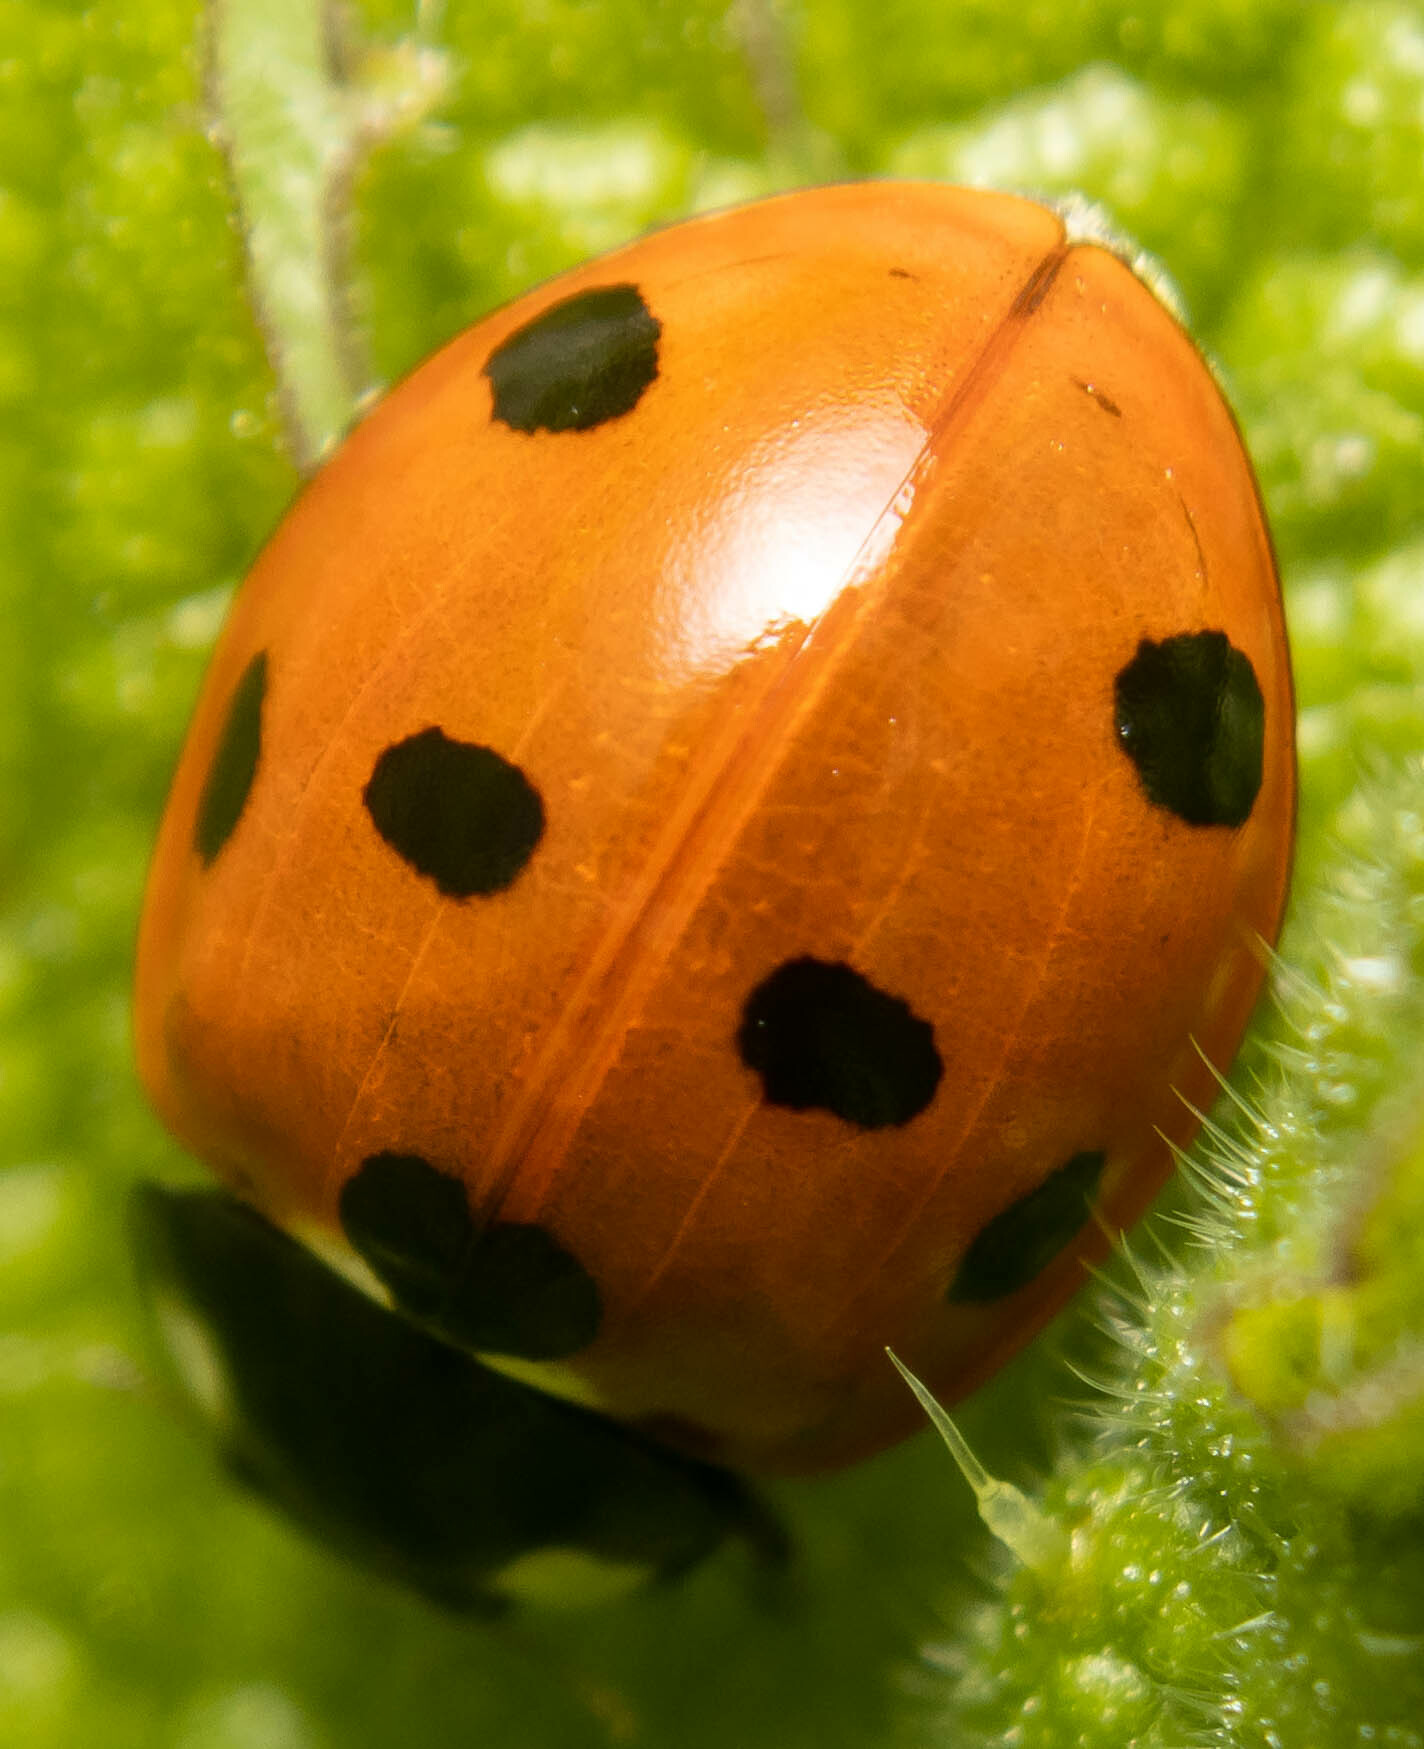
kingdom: Animalia
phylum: Arthropoda
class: Insecta
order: Coleoptera
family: Coccinellidae
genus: Coccinella
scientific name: Coccinella septempunctata
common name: Sevenspotted lady beetle
